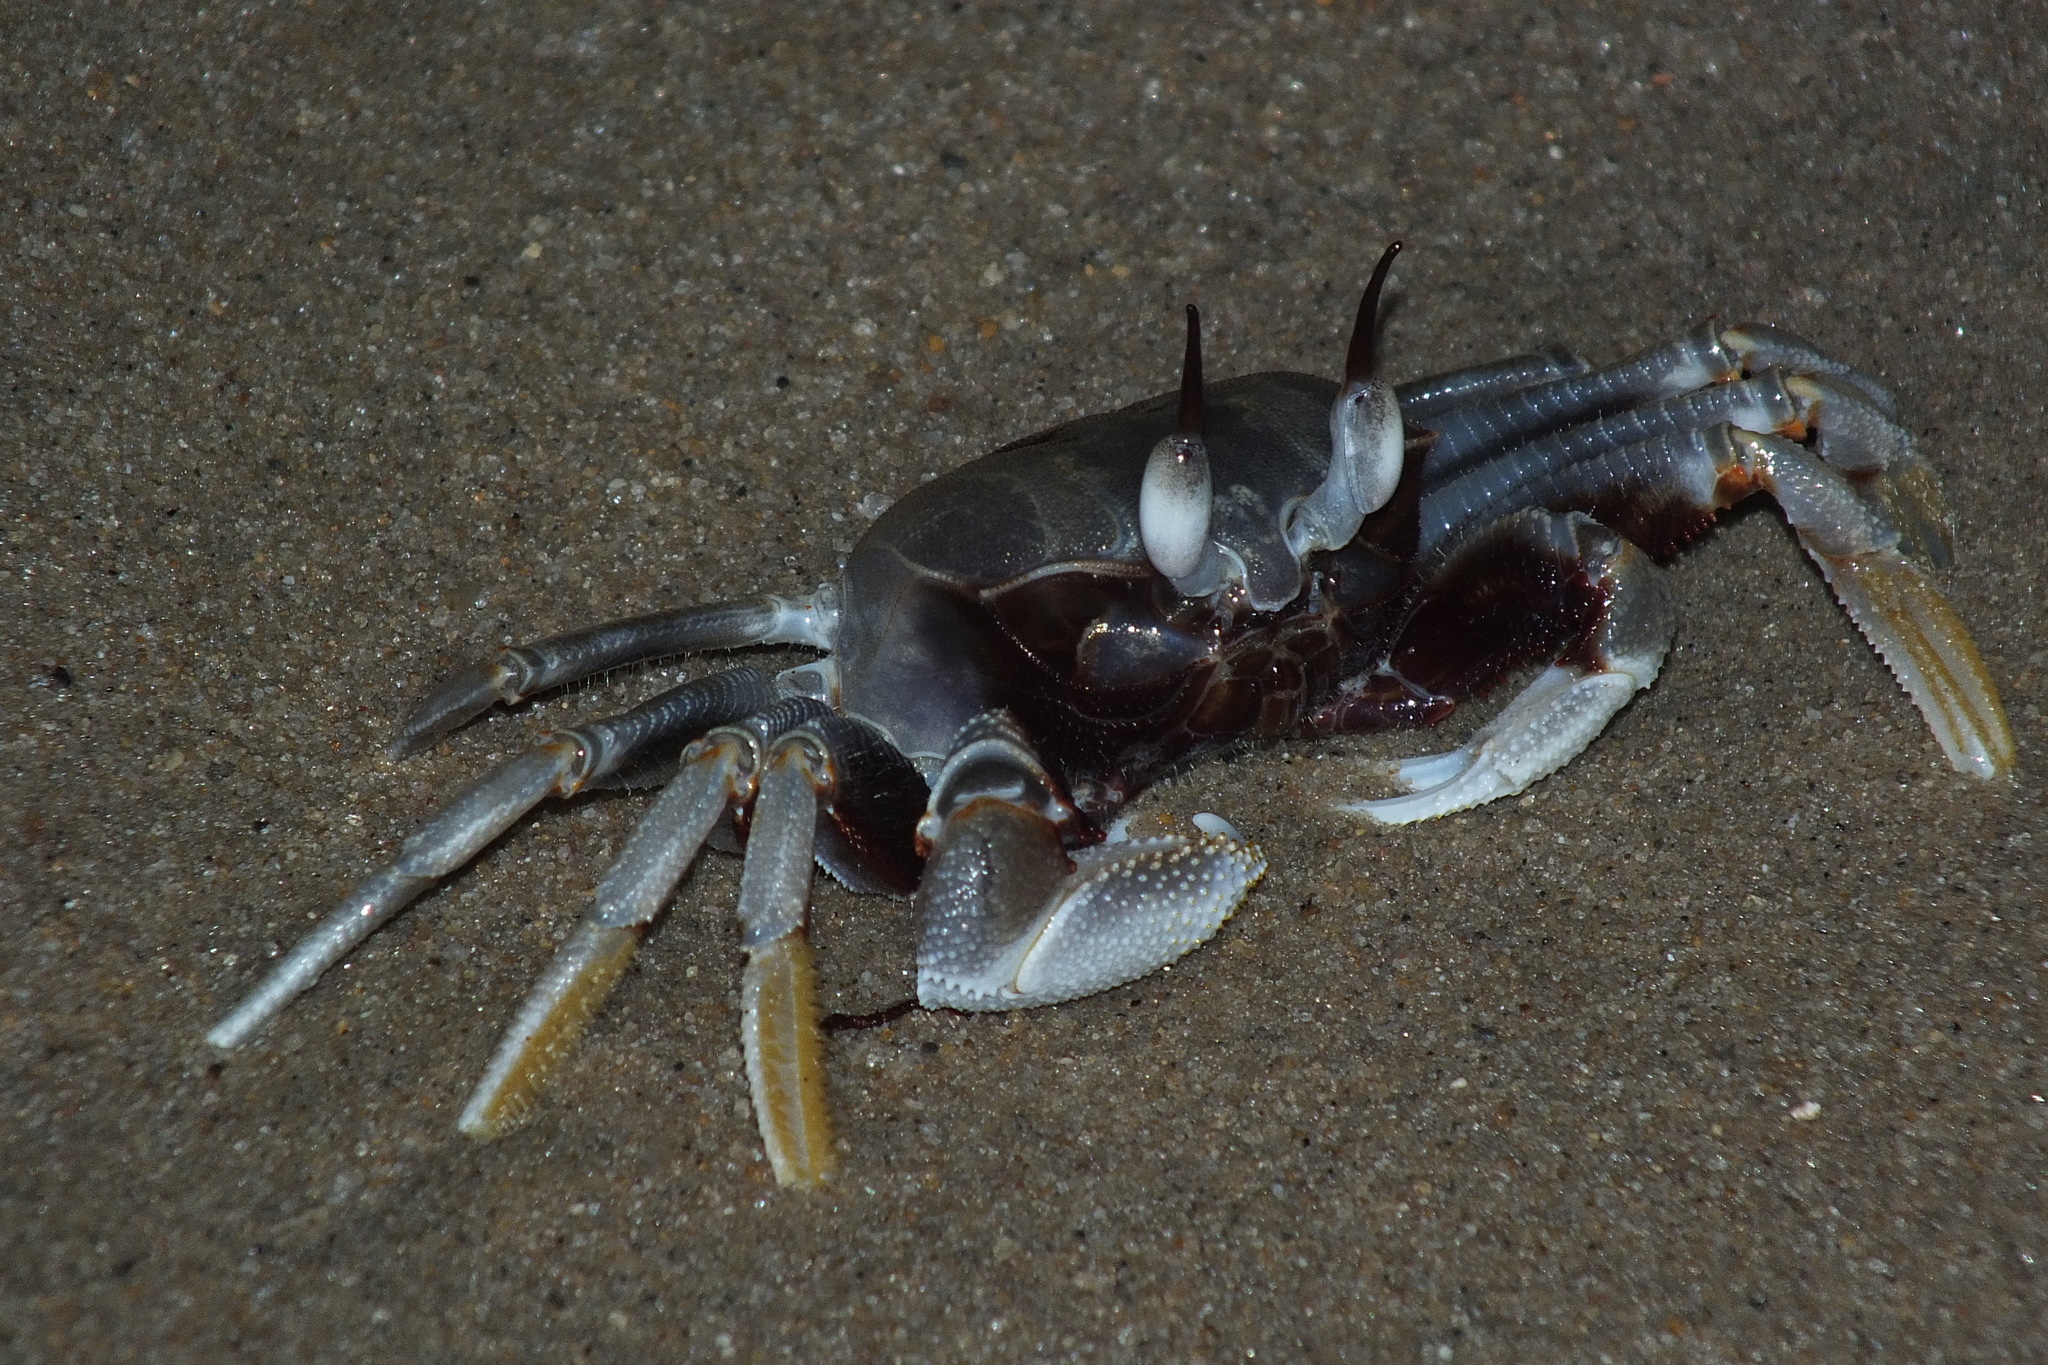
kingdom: Animalia
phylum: Arthropoda
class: Malacostraca
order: Decapoda
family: Ocypodidae
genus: Ocypode
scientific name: Ocypode ceratophthalmus
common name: Indo-pacific ghost crab
